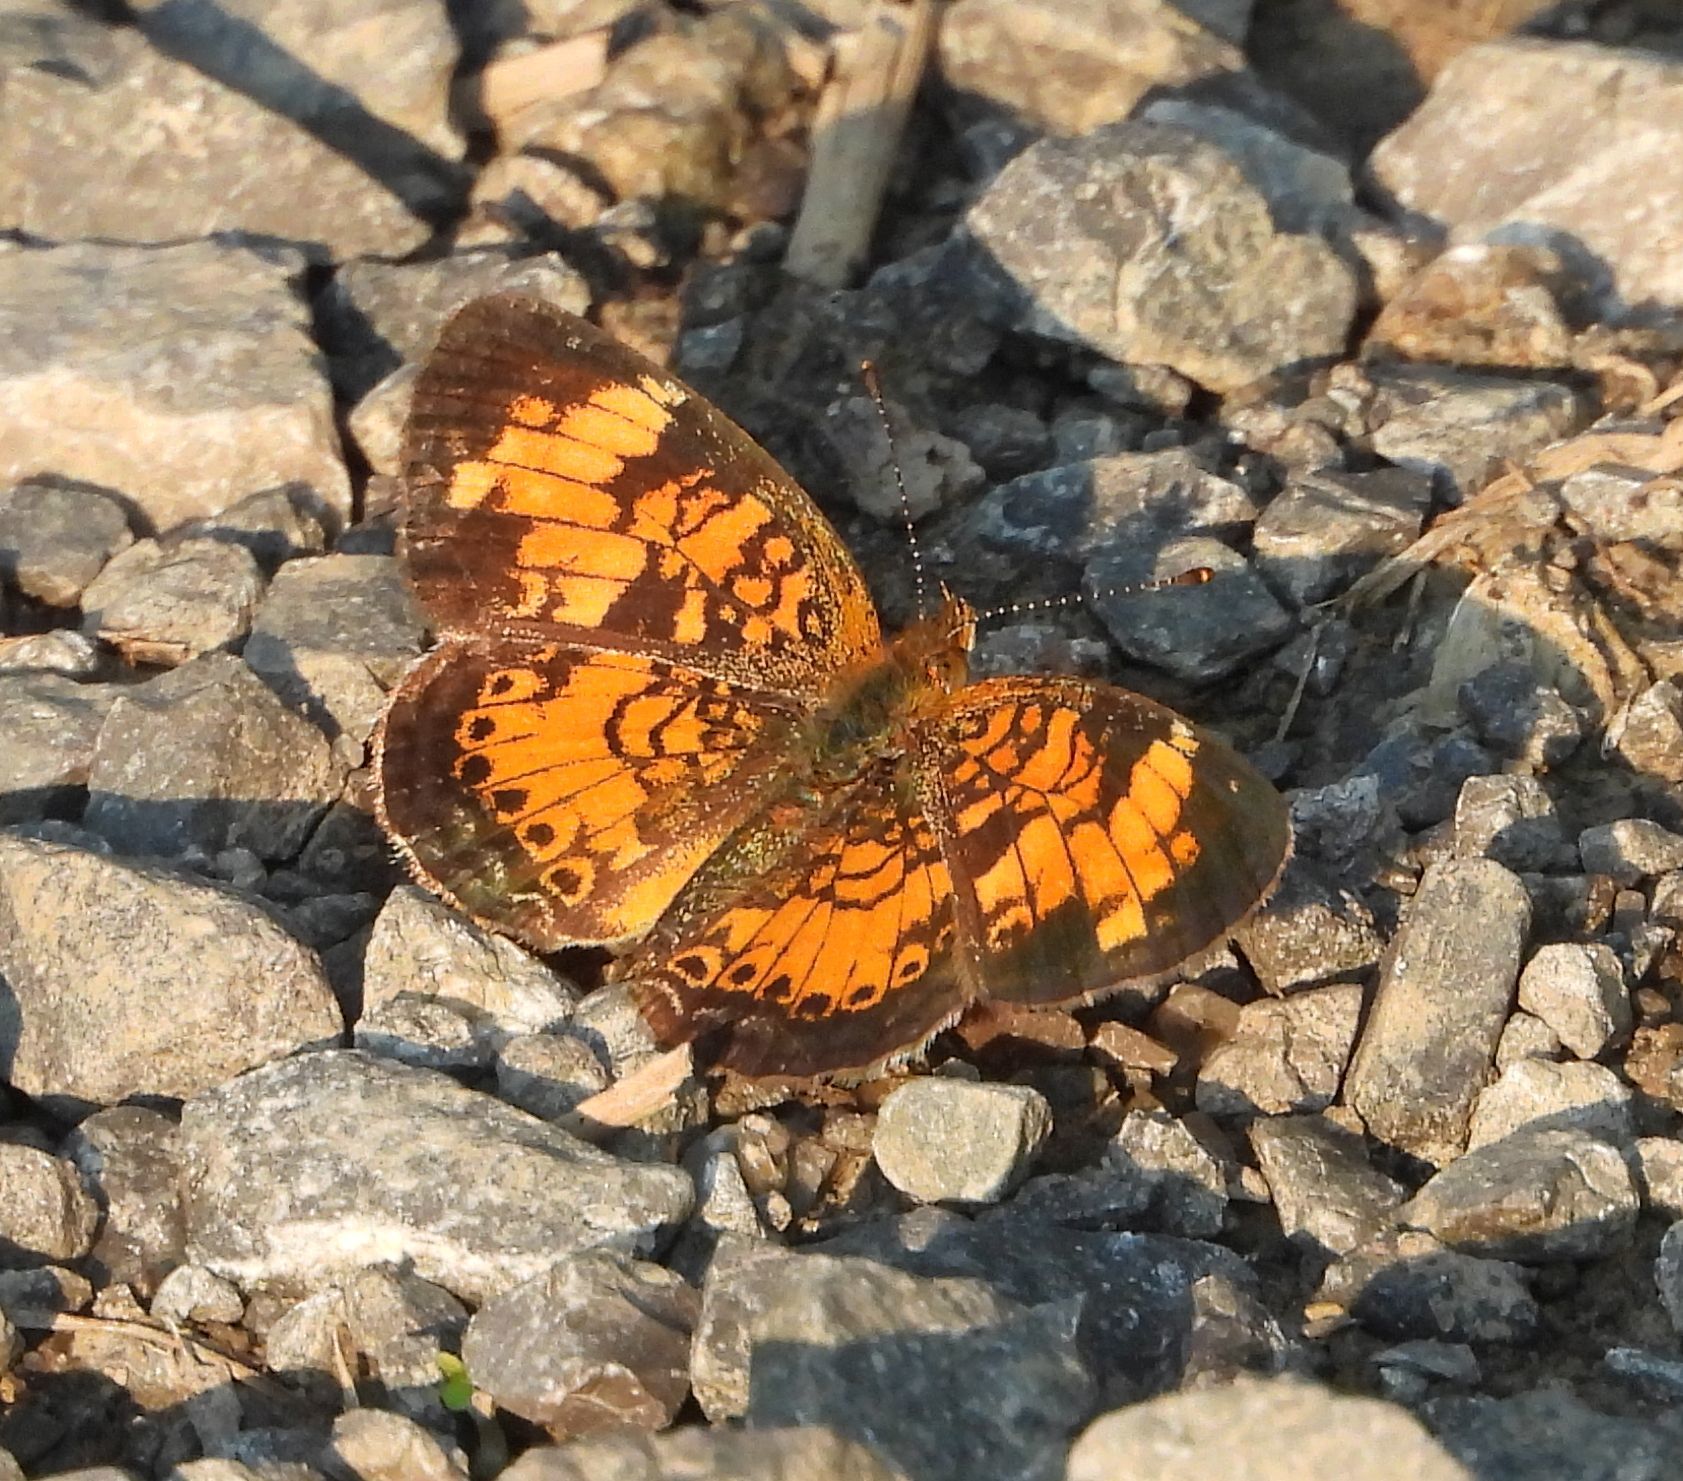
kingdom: Animalia
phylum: Arthropoda
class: Insecta
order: Lepidoptera
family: Nymphalidae
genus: Phyciodes
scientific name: Phyciodes tharos
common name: Pearl crescent
